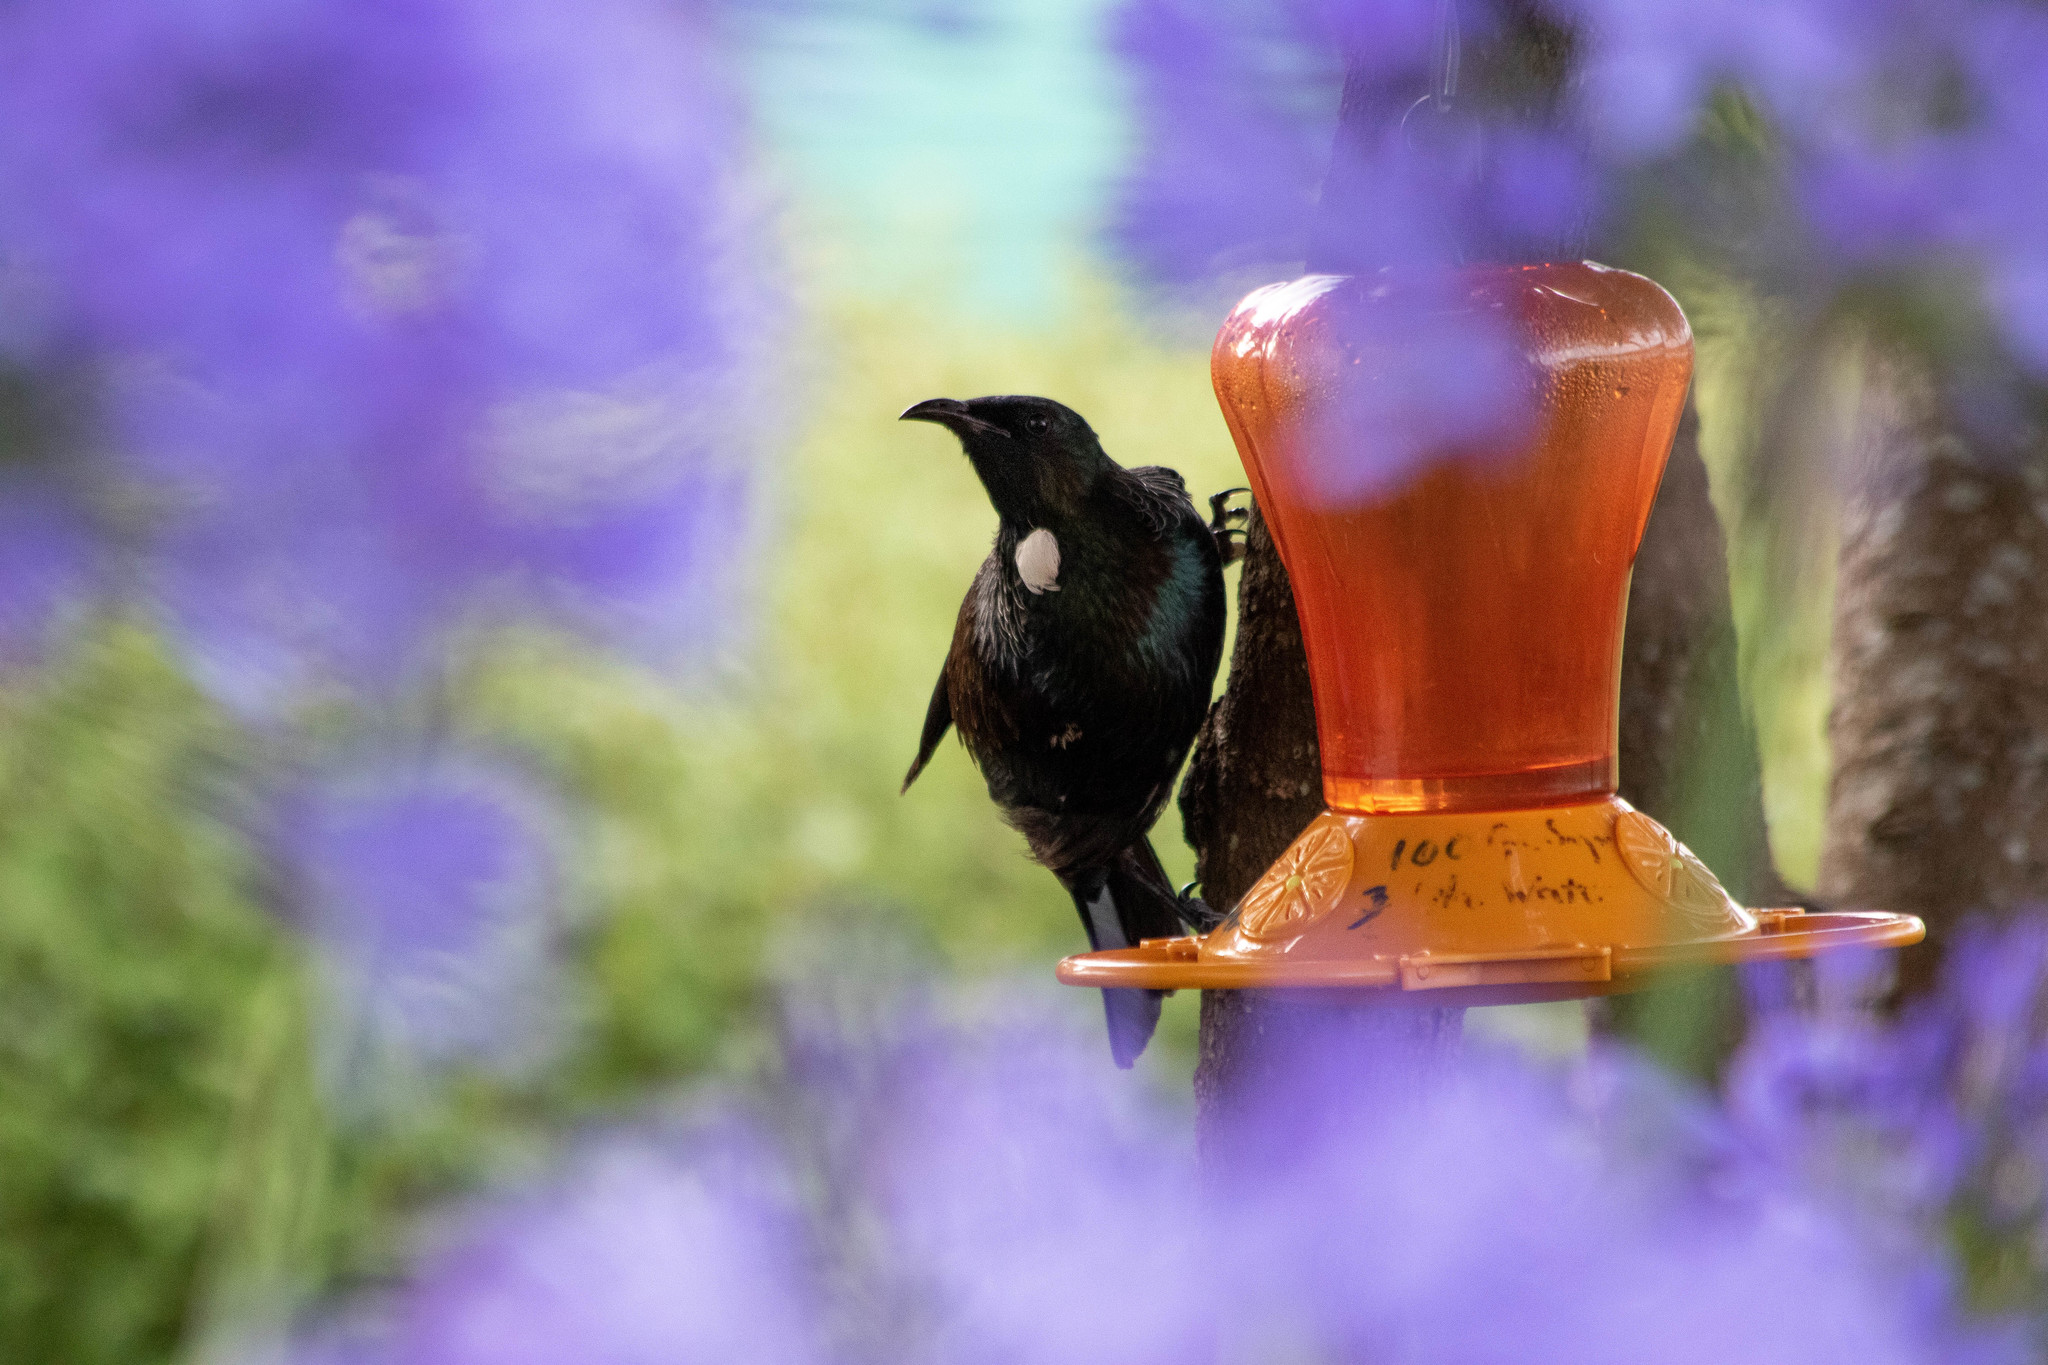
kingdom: Animalia
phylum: Chordata
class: Aves
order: Passeriformes
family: Meliphagidae
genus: Prosthemadera
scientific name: Prosthemadera novaeseelandiae
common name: Tui
